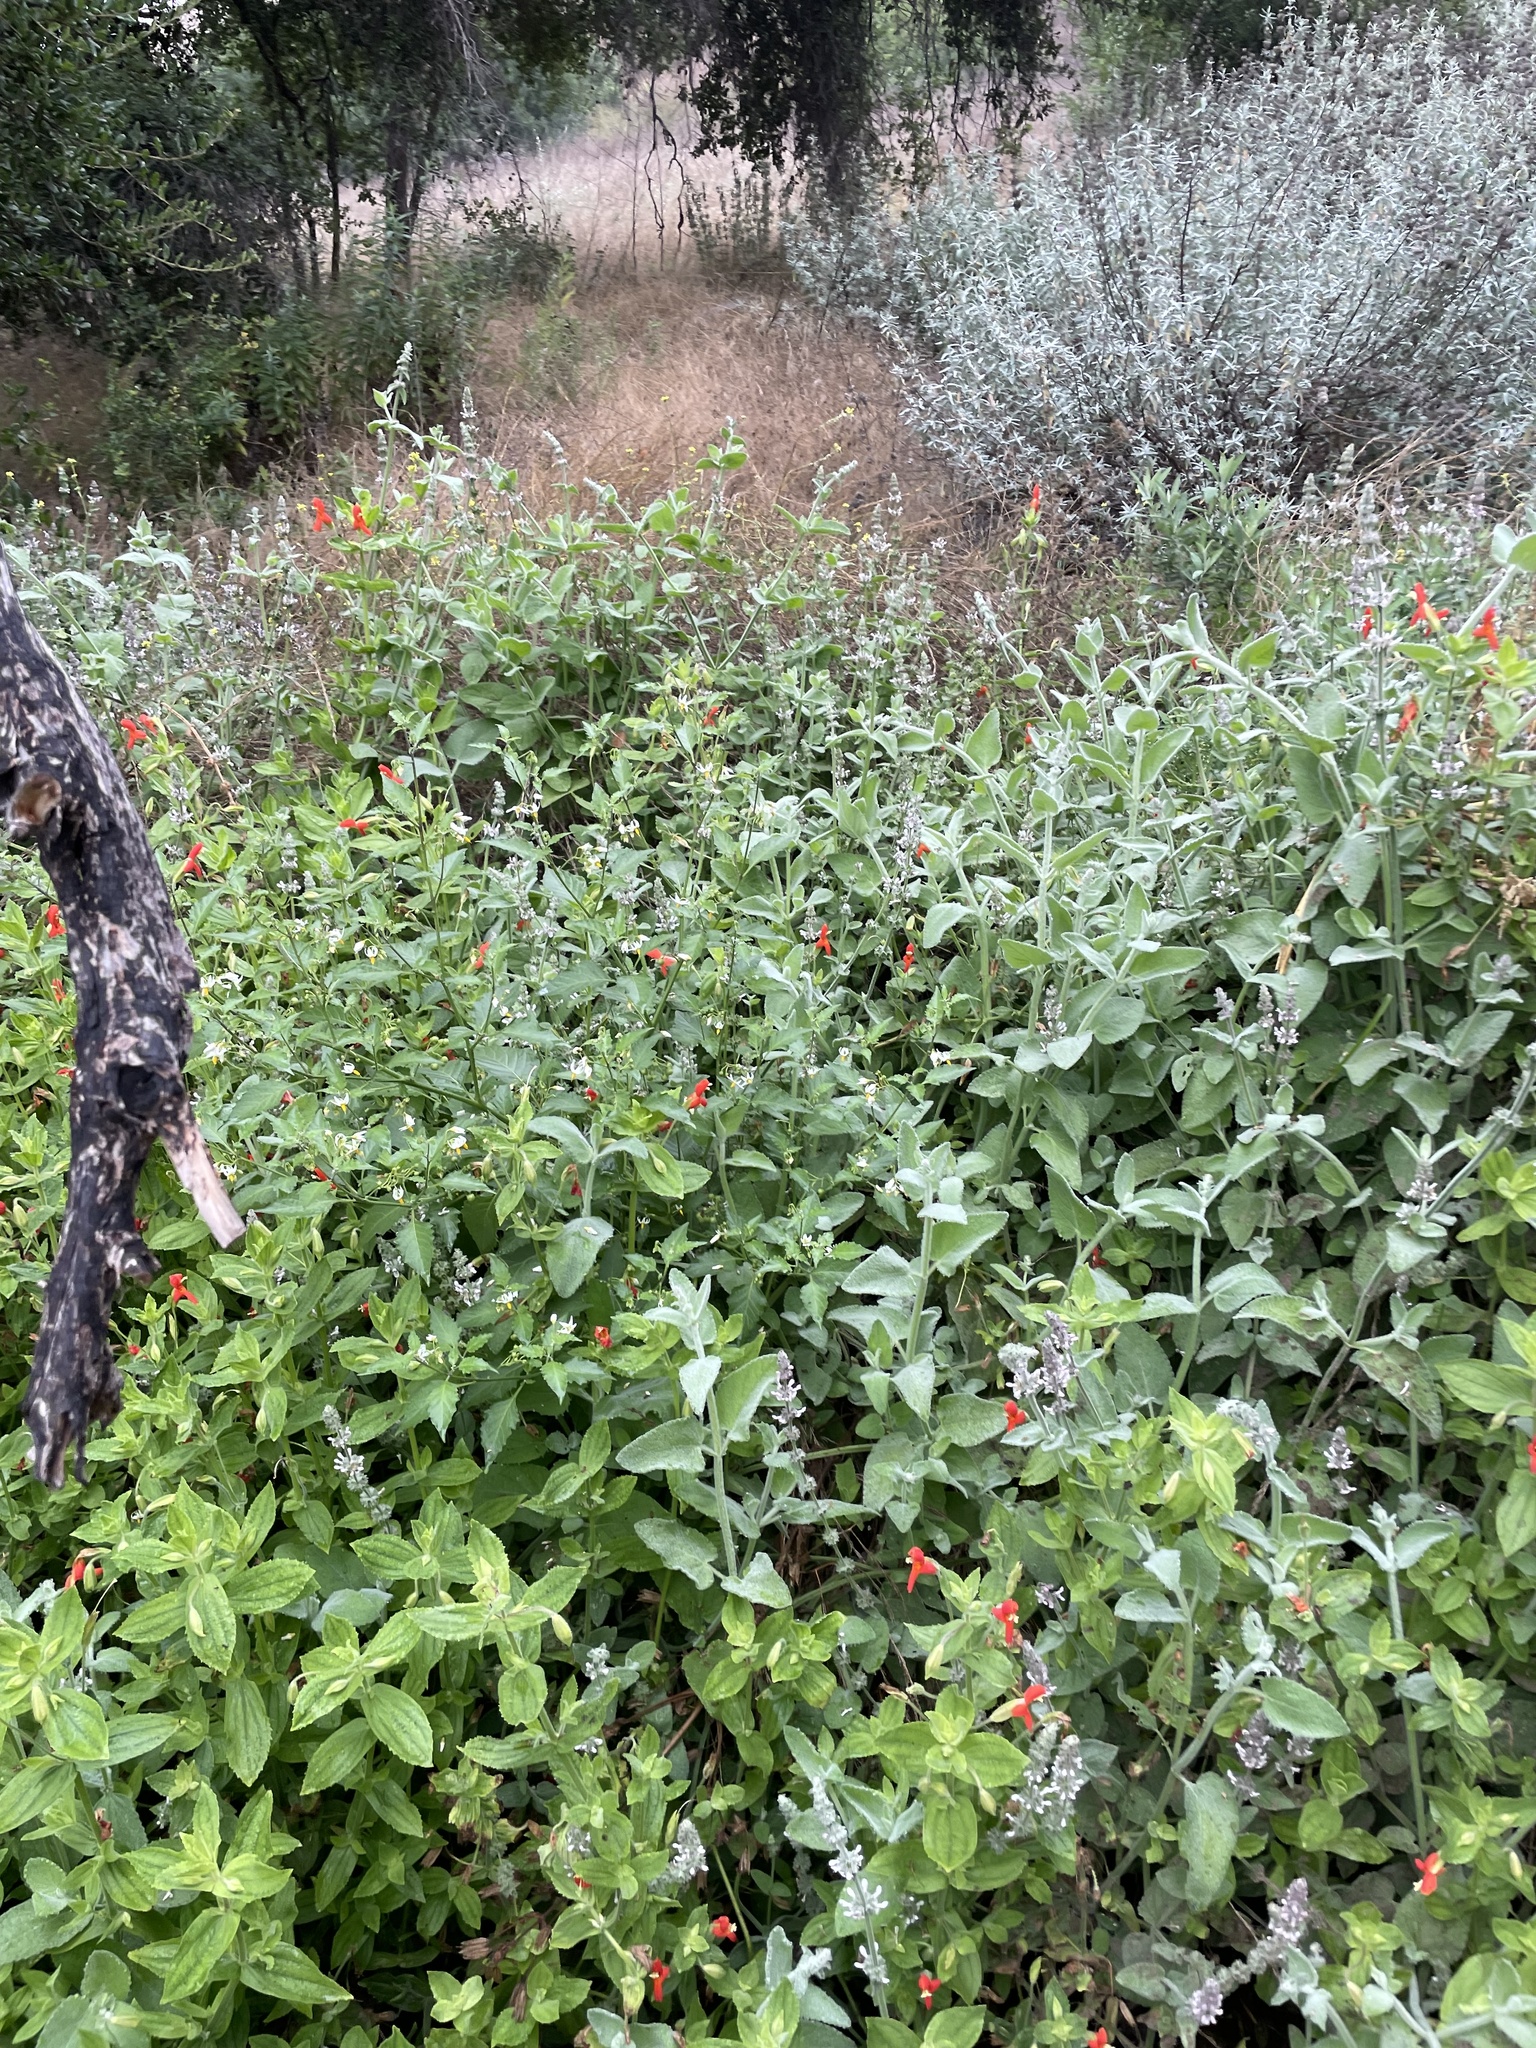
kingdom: Plantae
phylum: Tracheophyta
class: Magnoliopsida
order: Boraginales
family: Heliotropiaceae
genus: Heliotropium
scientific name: Heliotropium curassavicum
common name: Seaside heliotrope
